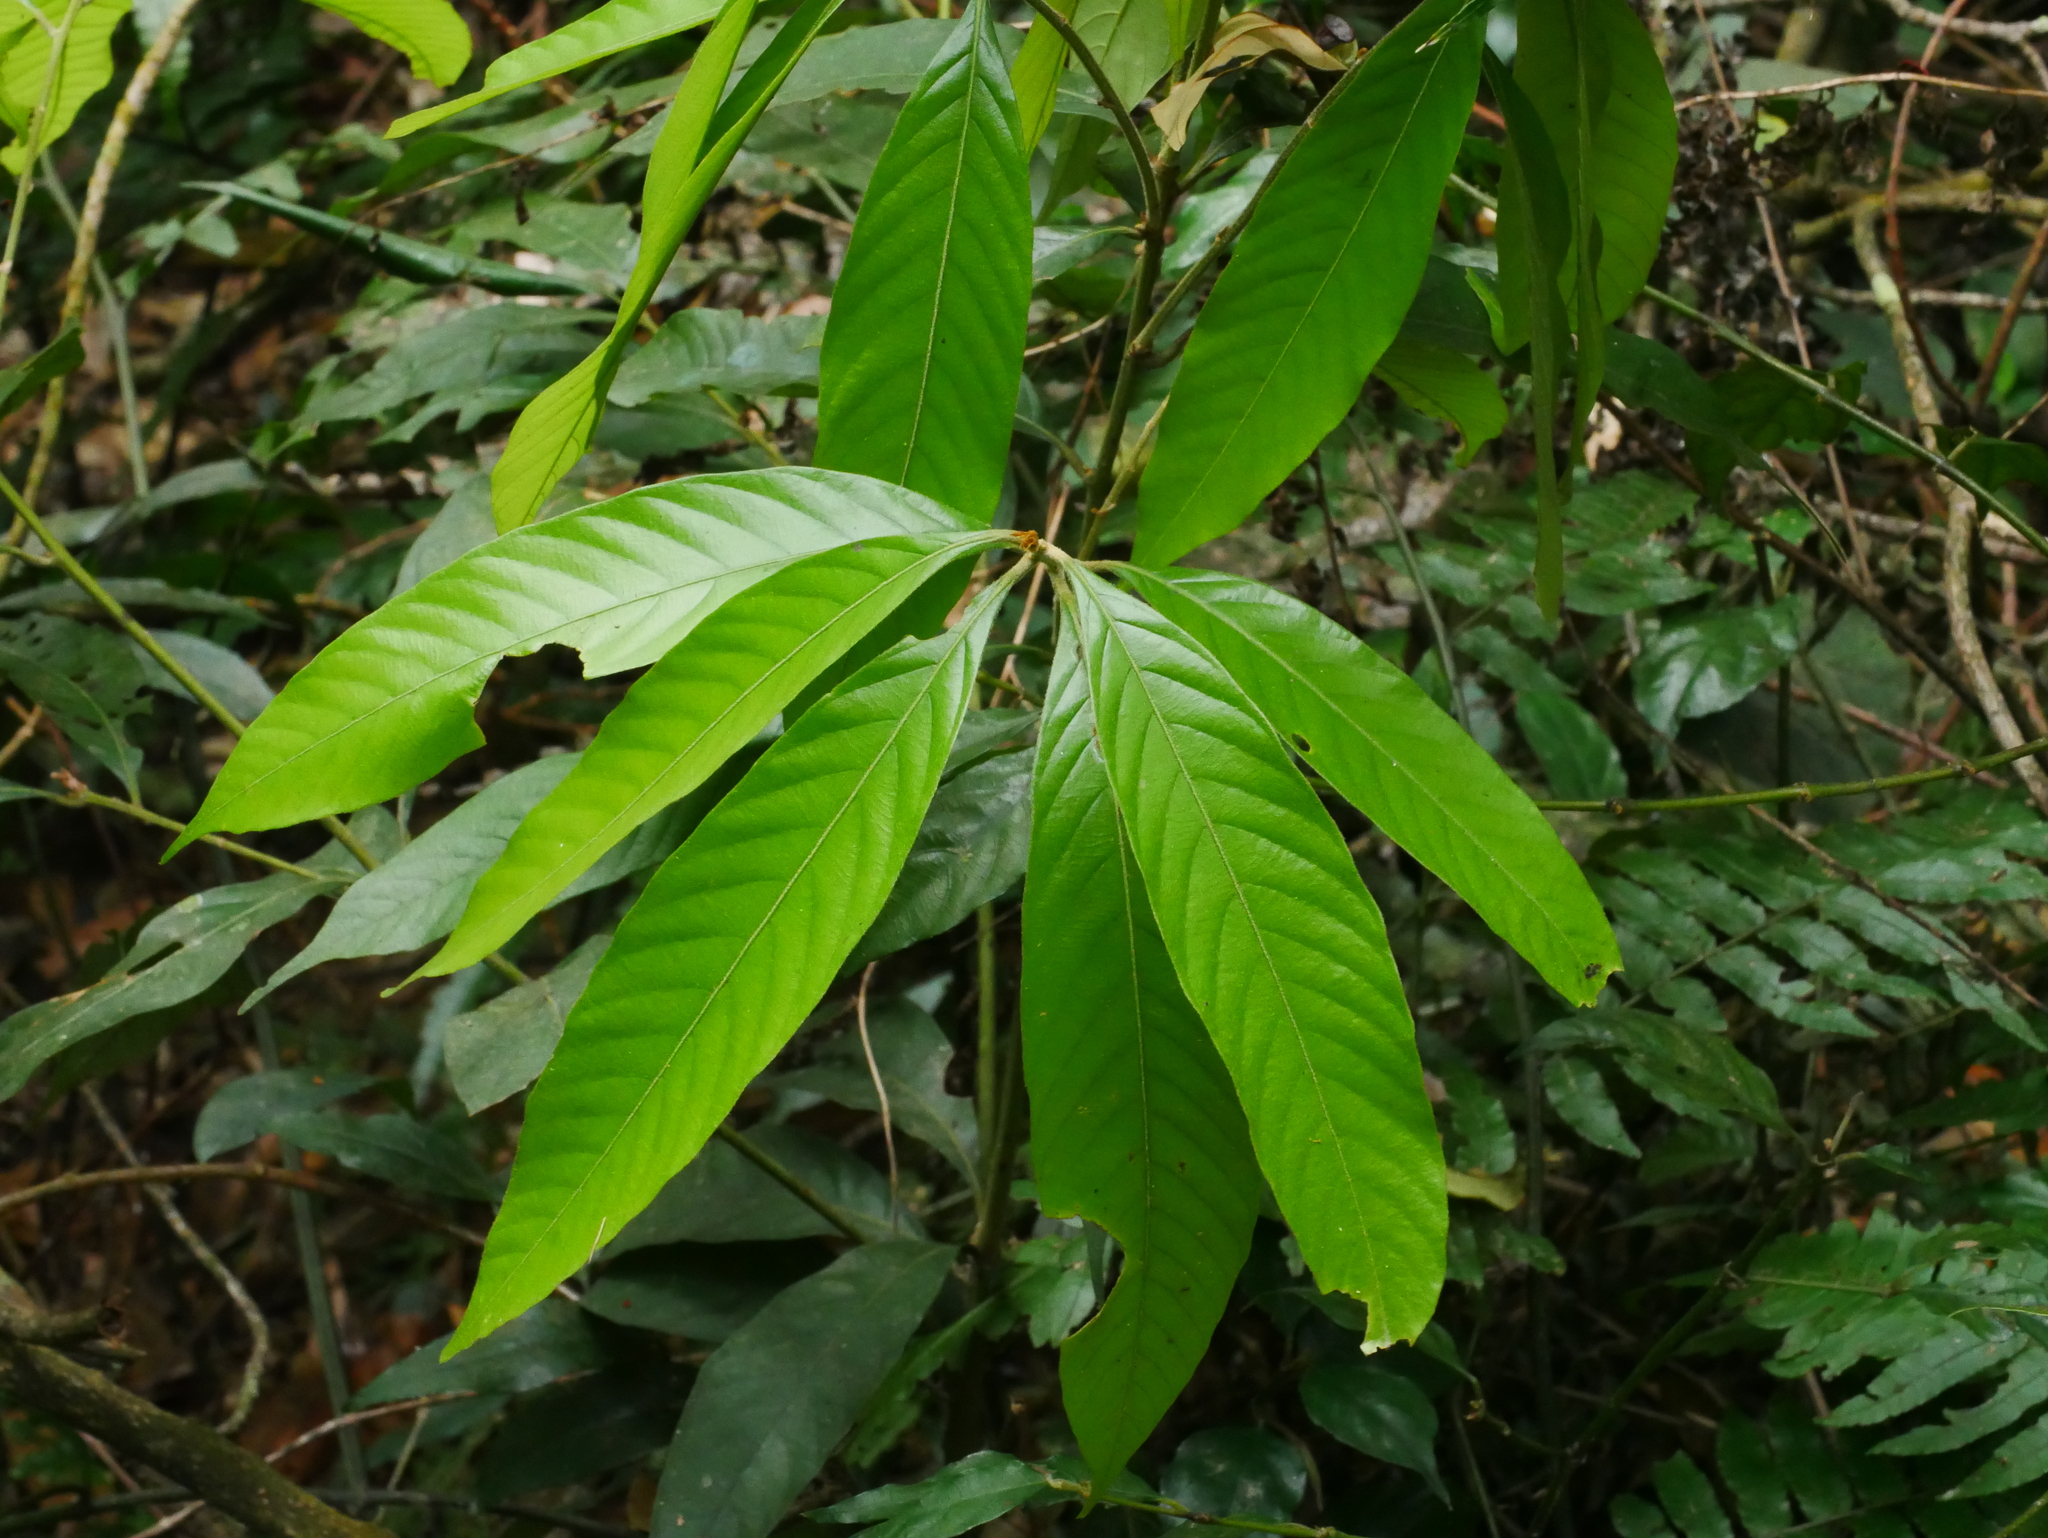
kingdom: Plantae
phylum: Tracheophyta
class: Magnoliopsida
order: Fagales
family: Fagaceae
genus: Lithocarpus
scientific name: Lithocarpus amygdalifolius
